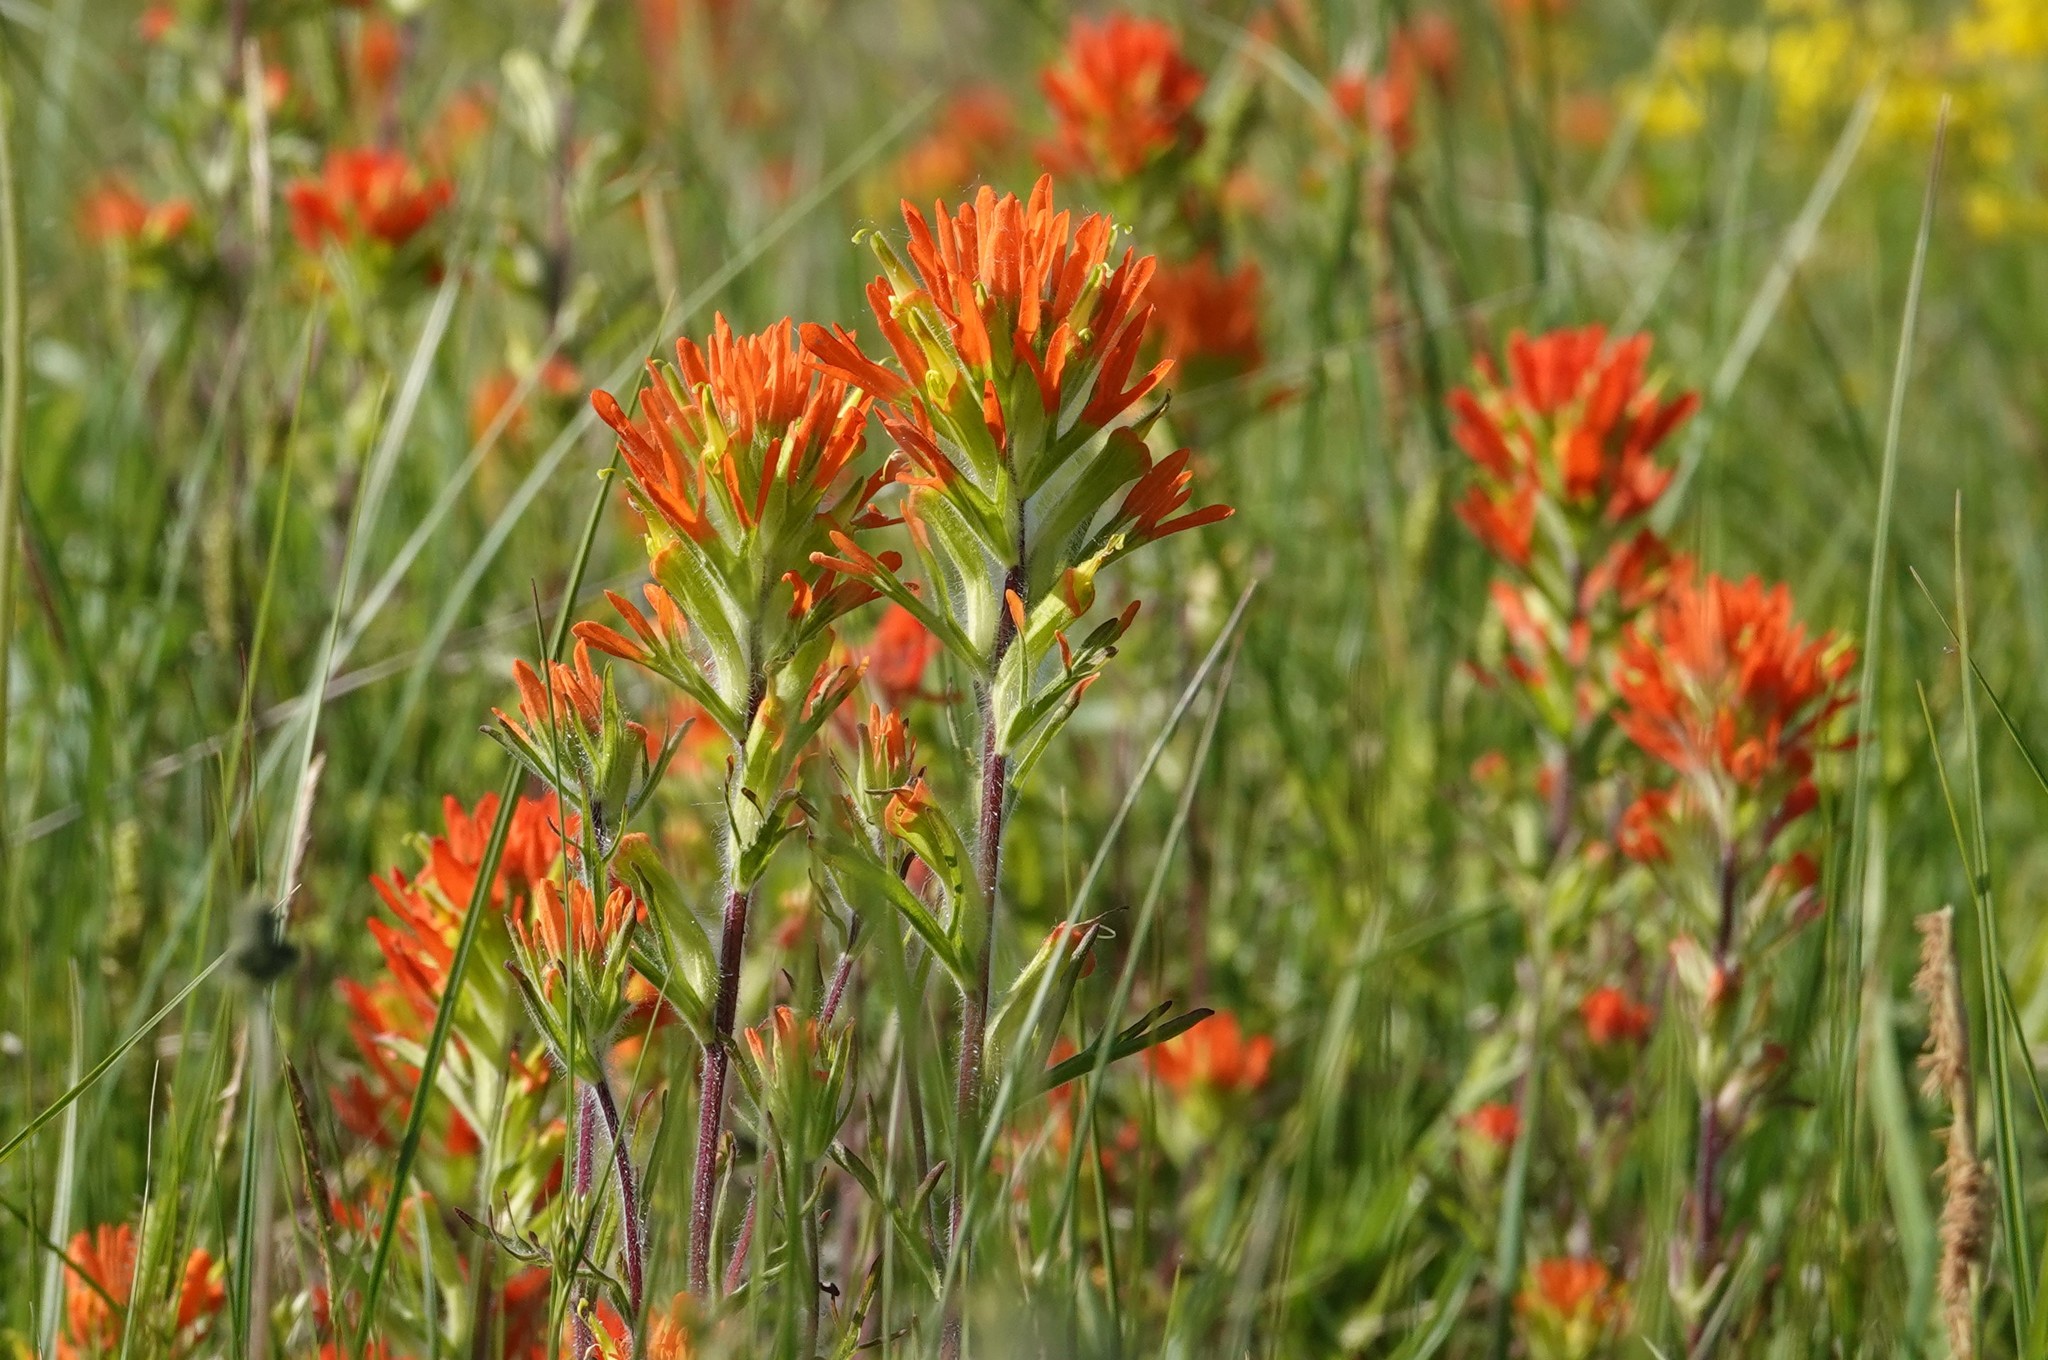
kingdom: Plantae
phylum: Tracheophyta
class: Magnoliopsida
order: Lamiales
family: Orobanchaceae
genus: Castilleja
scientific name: Castilleja coccinea
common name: Scarlet paintbrush
